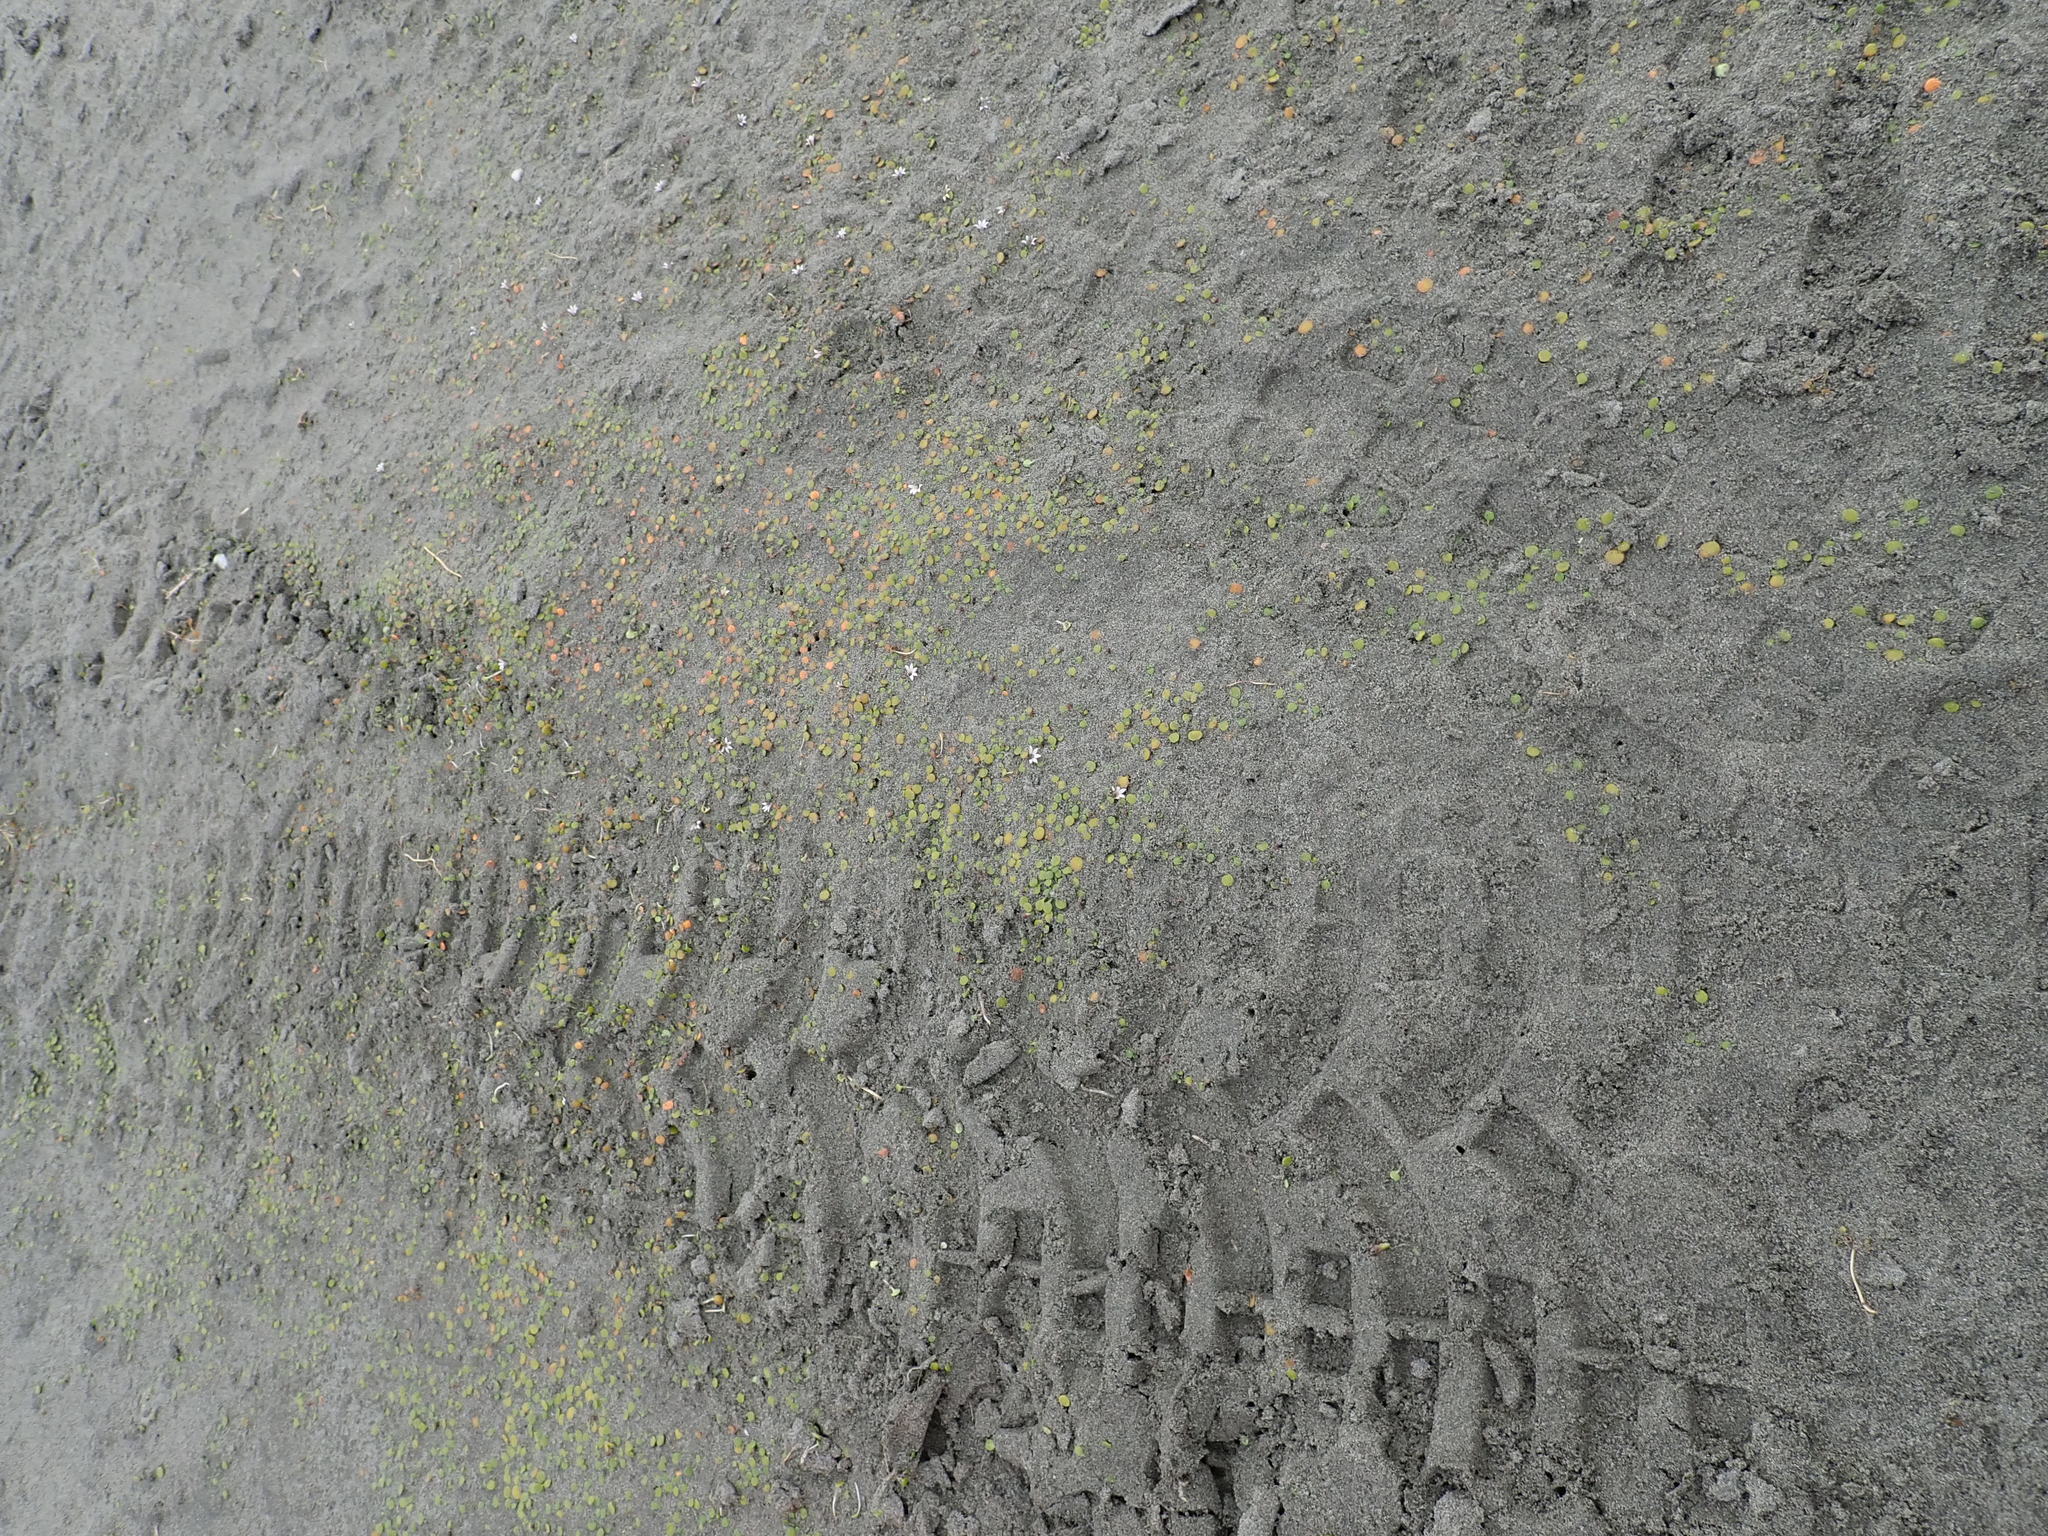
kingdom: Plantae
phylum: Tracheophyta
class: Magnoliopsida
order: Asterales
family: Goodeniaceae
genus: Goodenia
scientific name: Goodenia heenanii
